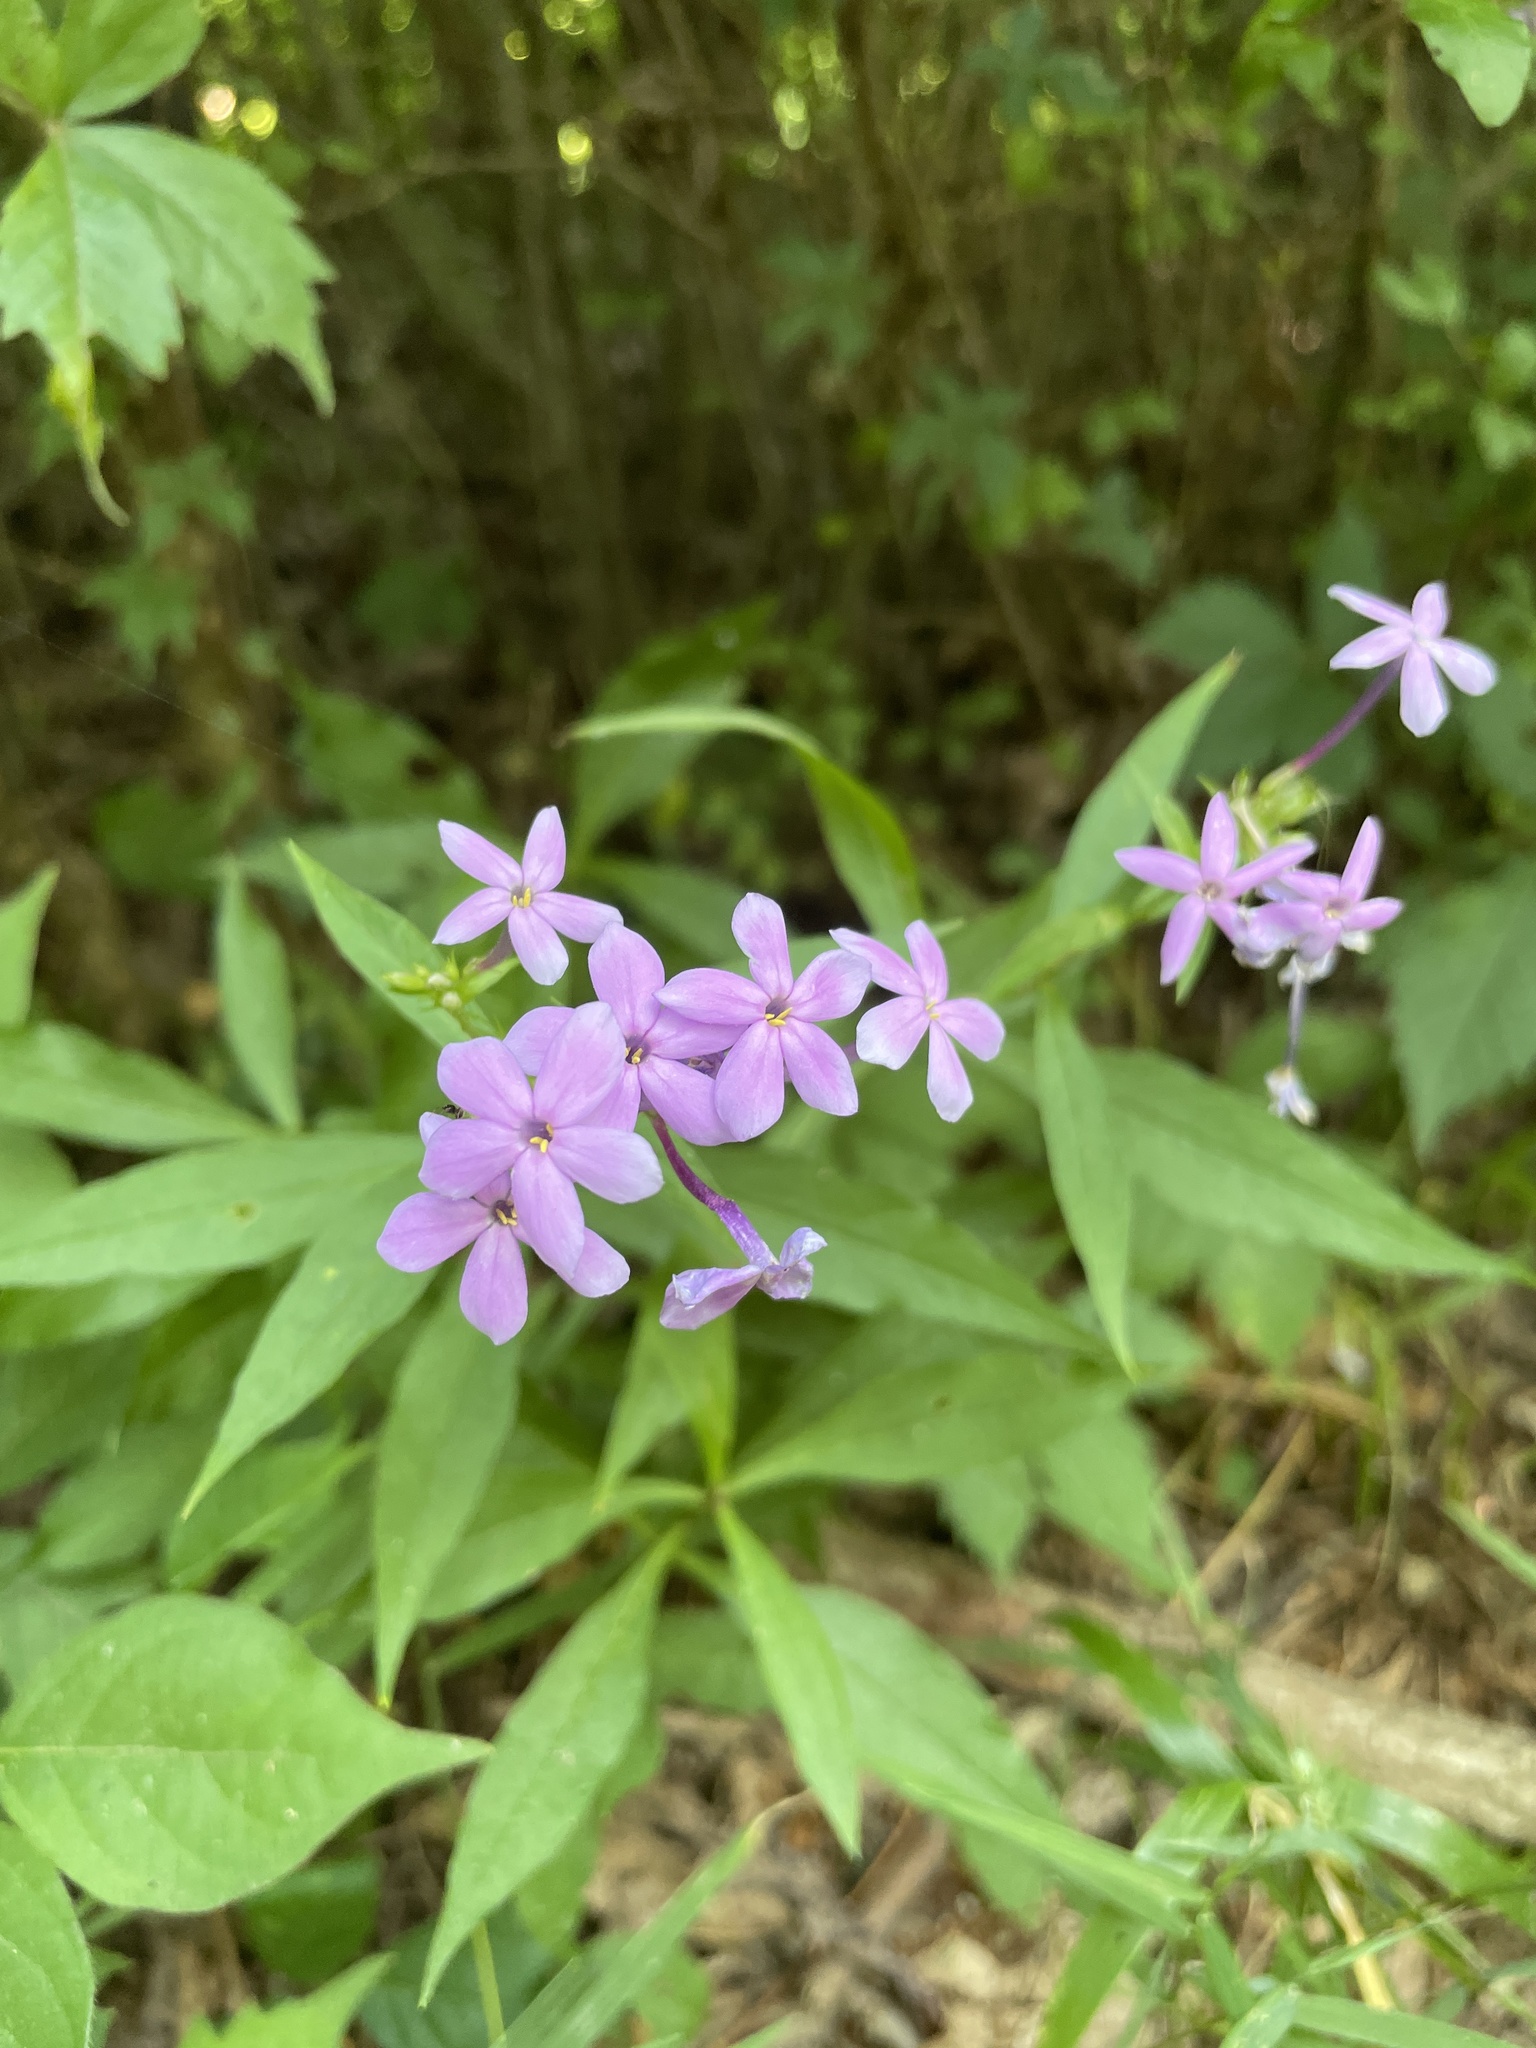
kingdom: Plantae
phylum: Tracheophyta
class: Magnoliopsida
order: Ericales
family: Polemoniaceae
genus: Phlox
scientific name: Phlox paniculata
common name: Fall phlox
